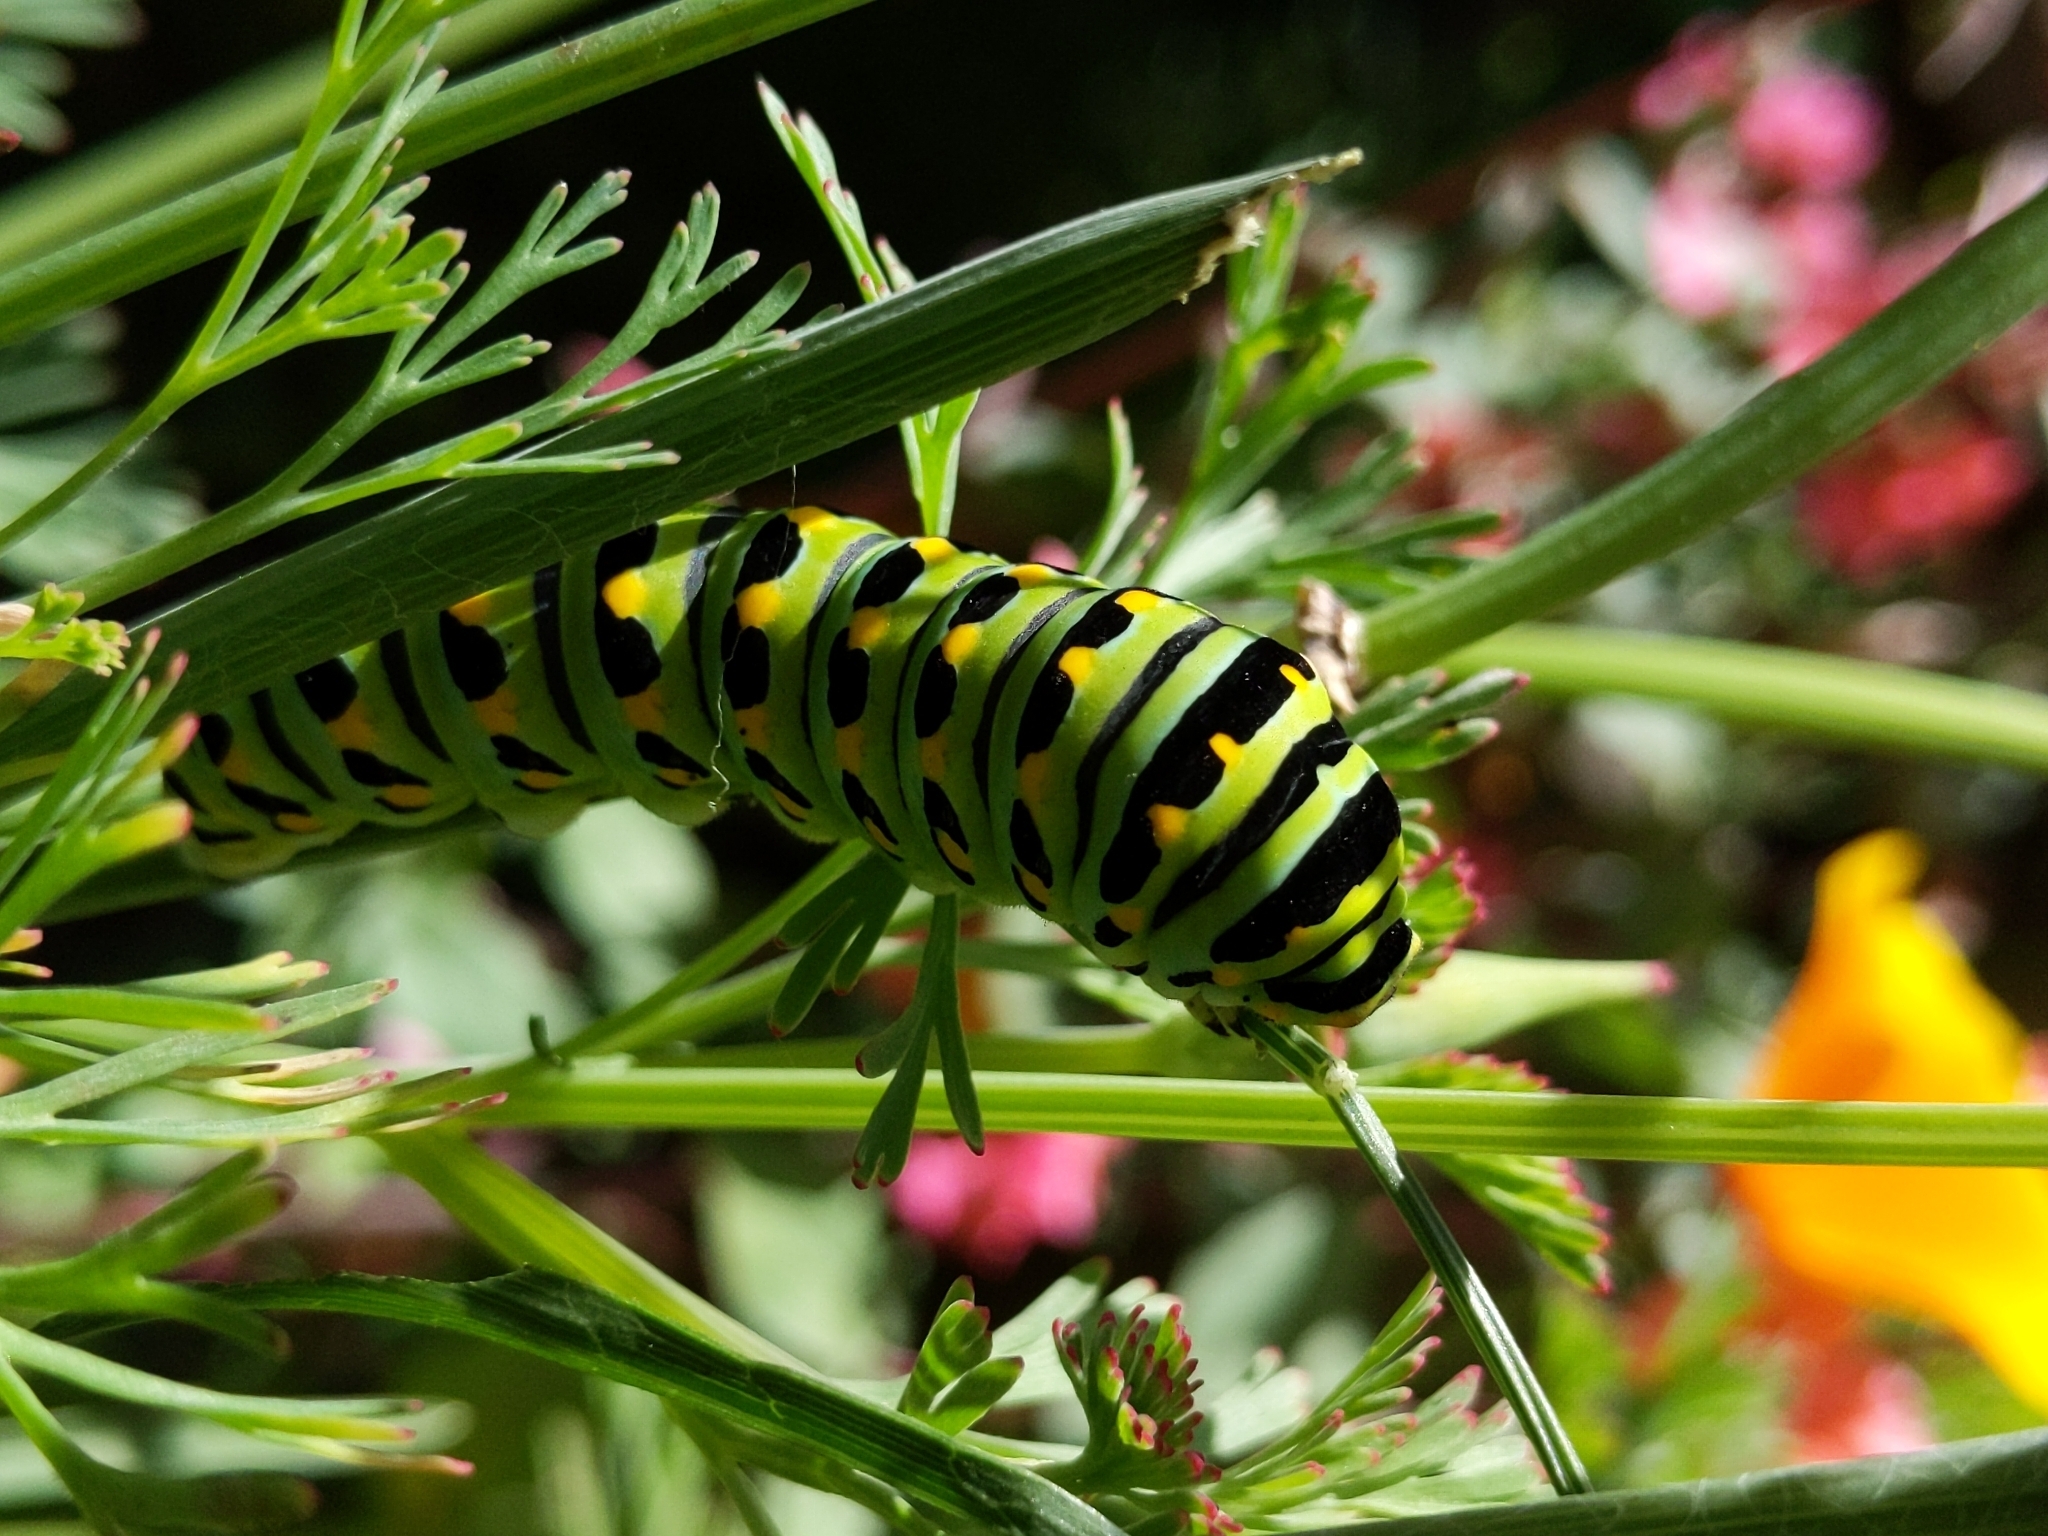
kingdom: Animalia
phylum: Arthropoda
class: Insecta
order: Lepidoptera
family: Papilionidae
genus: Papilio
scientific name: Papilio zelicaon
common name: Anise swallowtail
